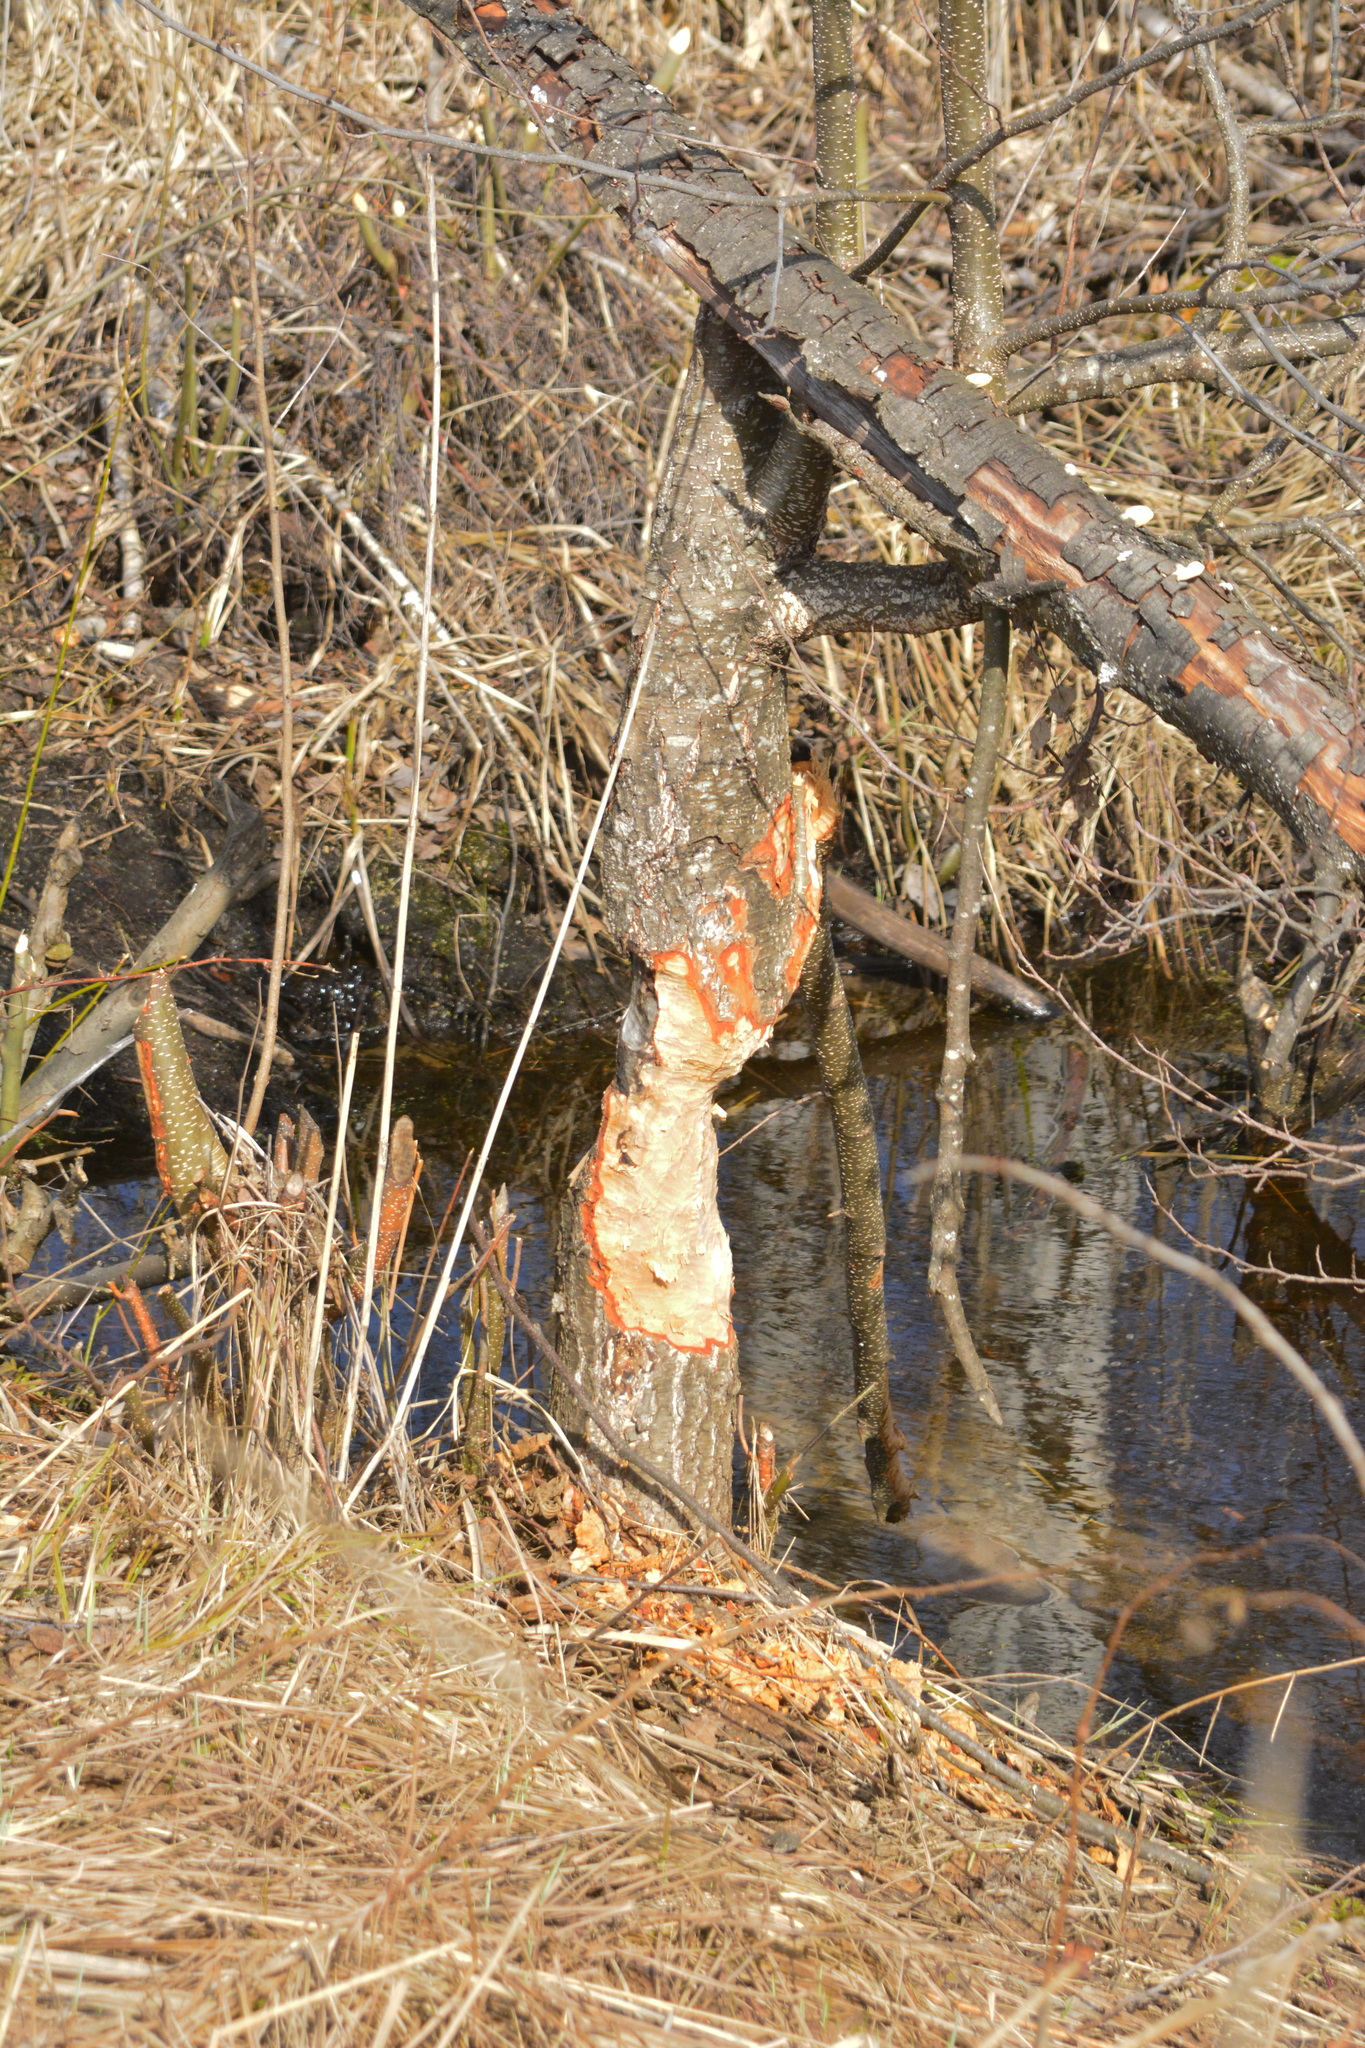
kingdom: Animalia
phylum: Chordata
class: Mammalia
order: Rodentia
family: Castoridae
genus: Castor
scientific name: Castor fiber
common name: Eurasian beaver
